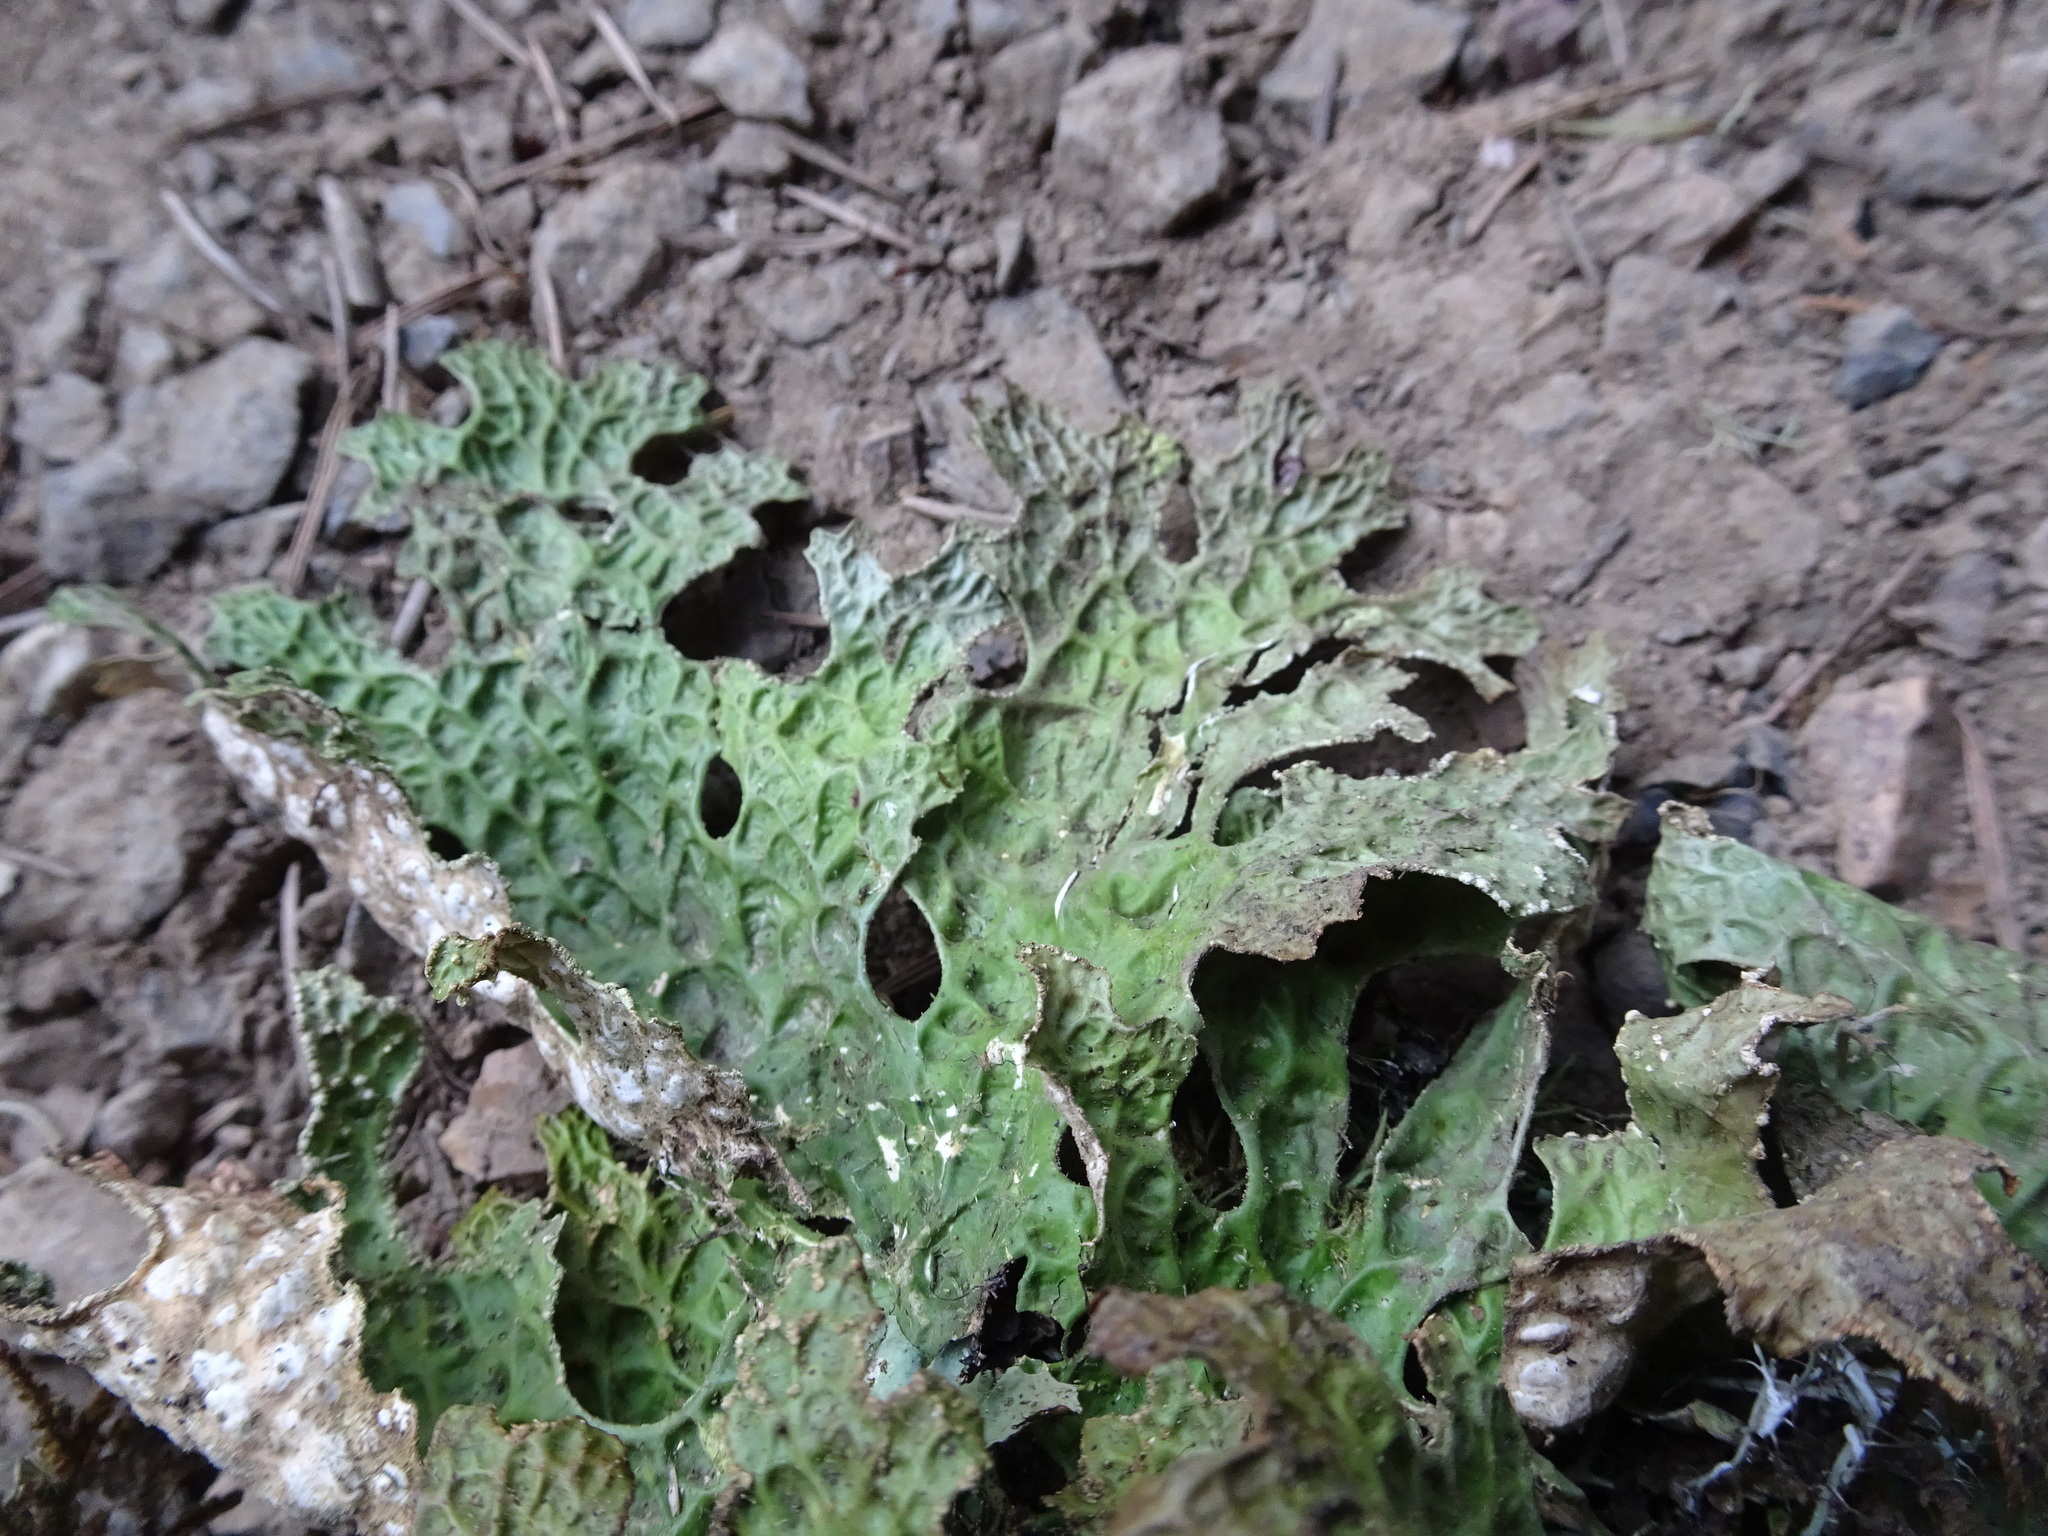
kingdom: Fungi
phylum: Ascomycota
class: Lecanoromycetes
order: Peltigerales
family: Lobariaceae
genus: Lobaria
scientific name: Lobaria pulmonaria
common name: Lungwort
